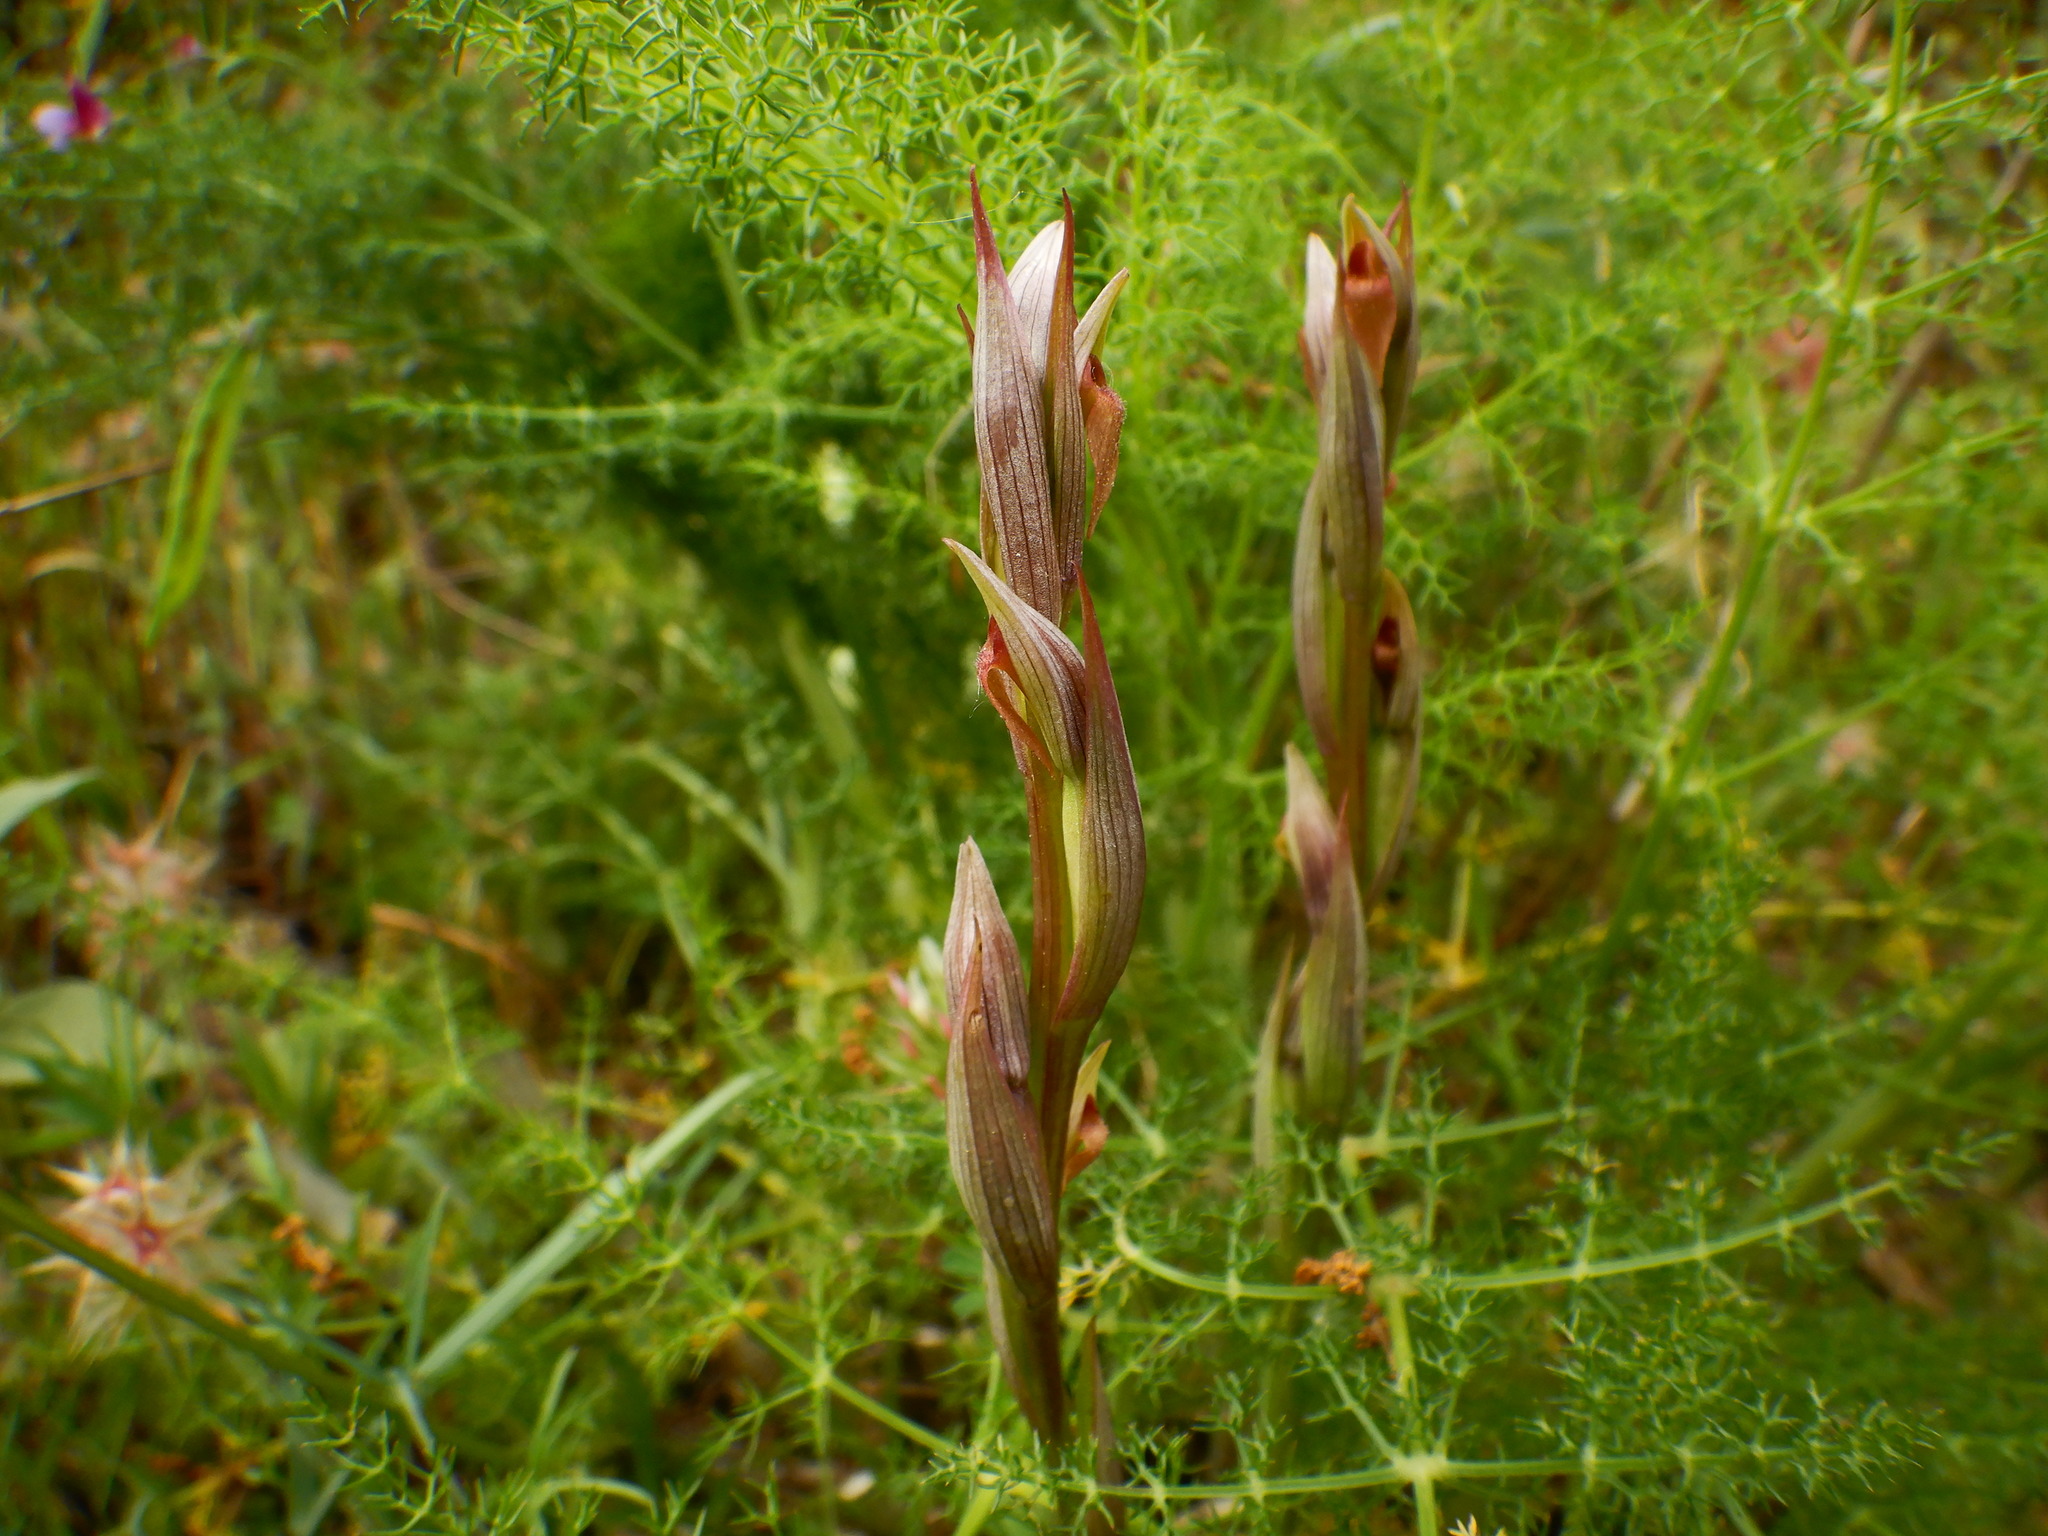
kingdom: Plantae
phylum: Tracheophyta
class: Liliopsida
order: Asparagales
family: Orchidaceae
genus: Serapias
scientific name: Serapias parviflora
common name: Small-flowered tongue-orchid
